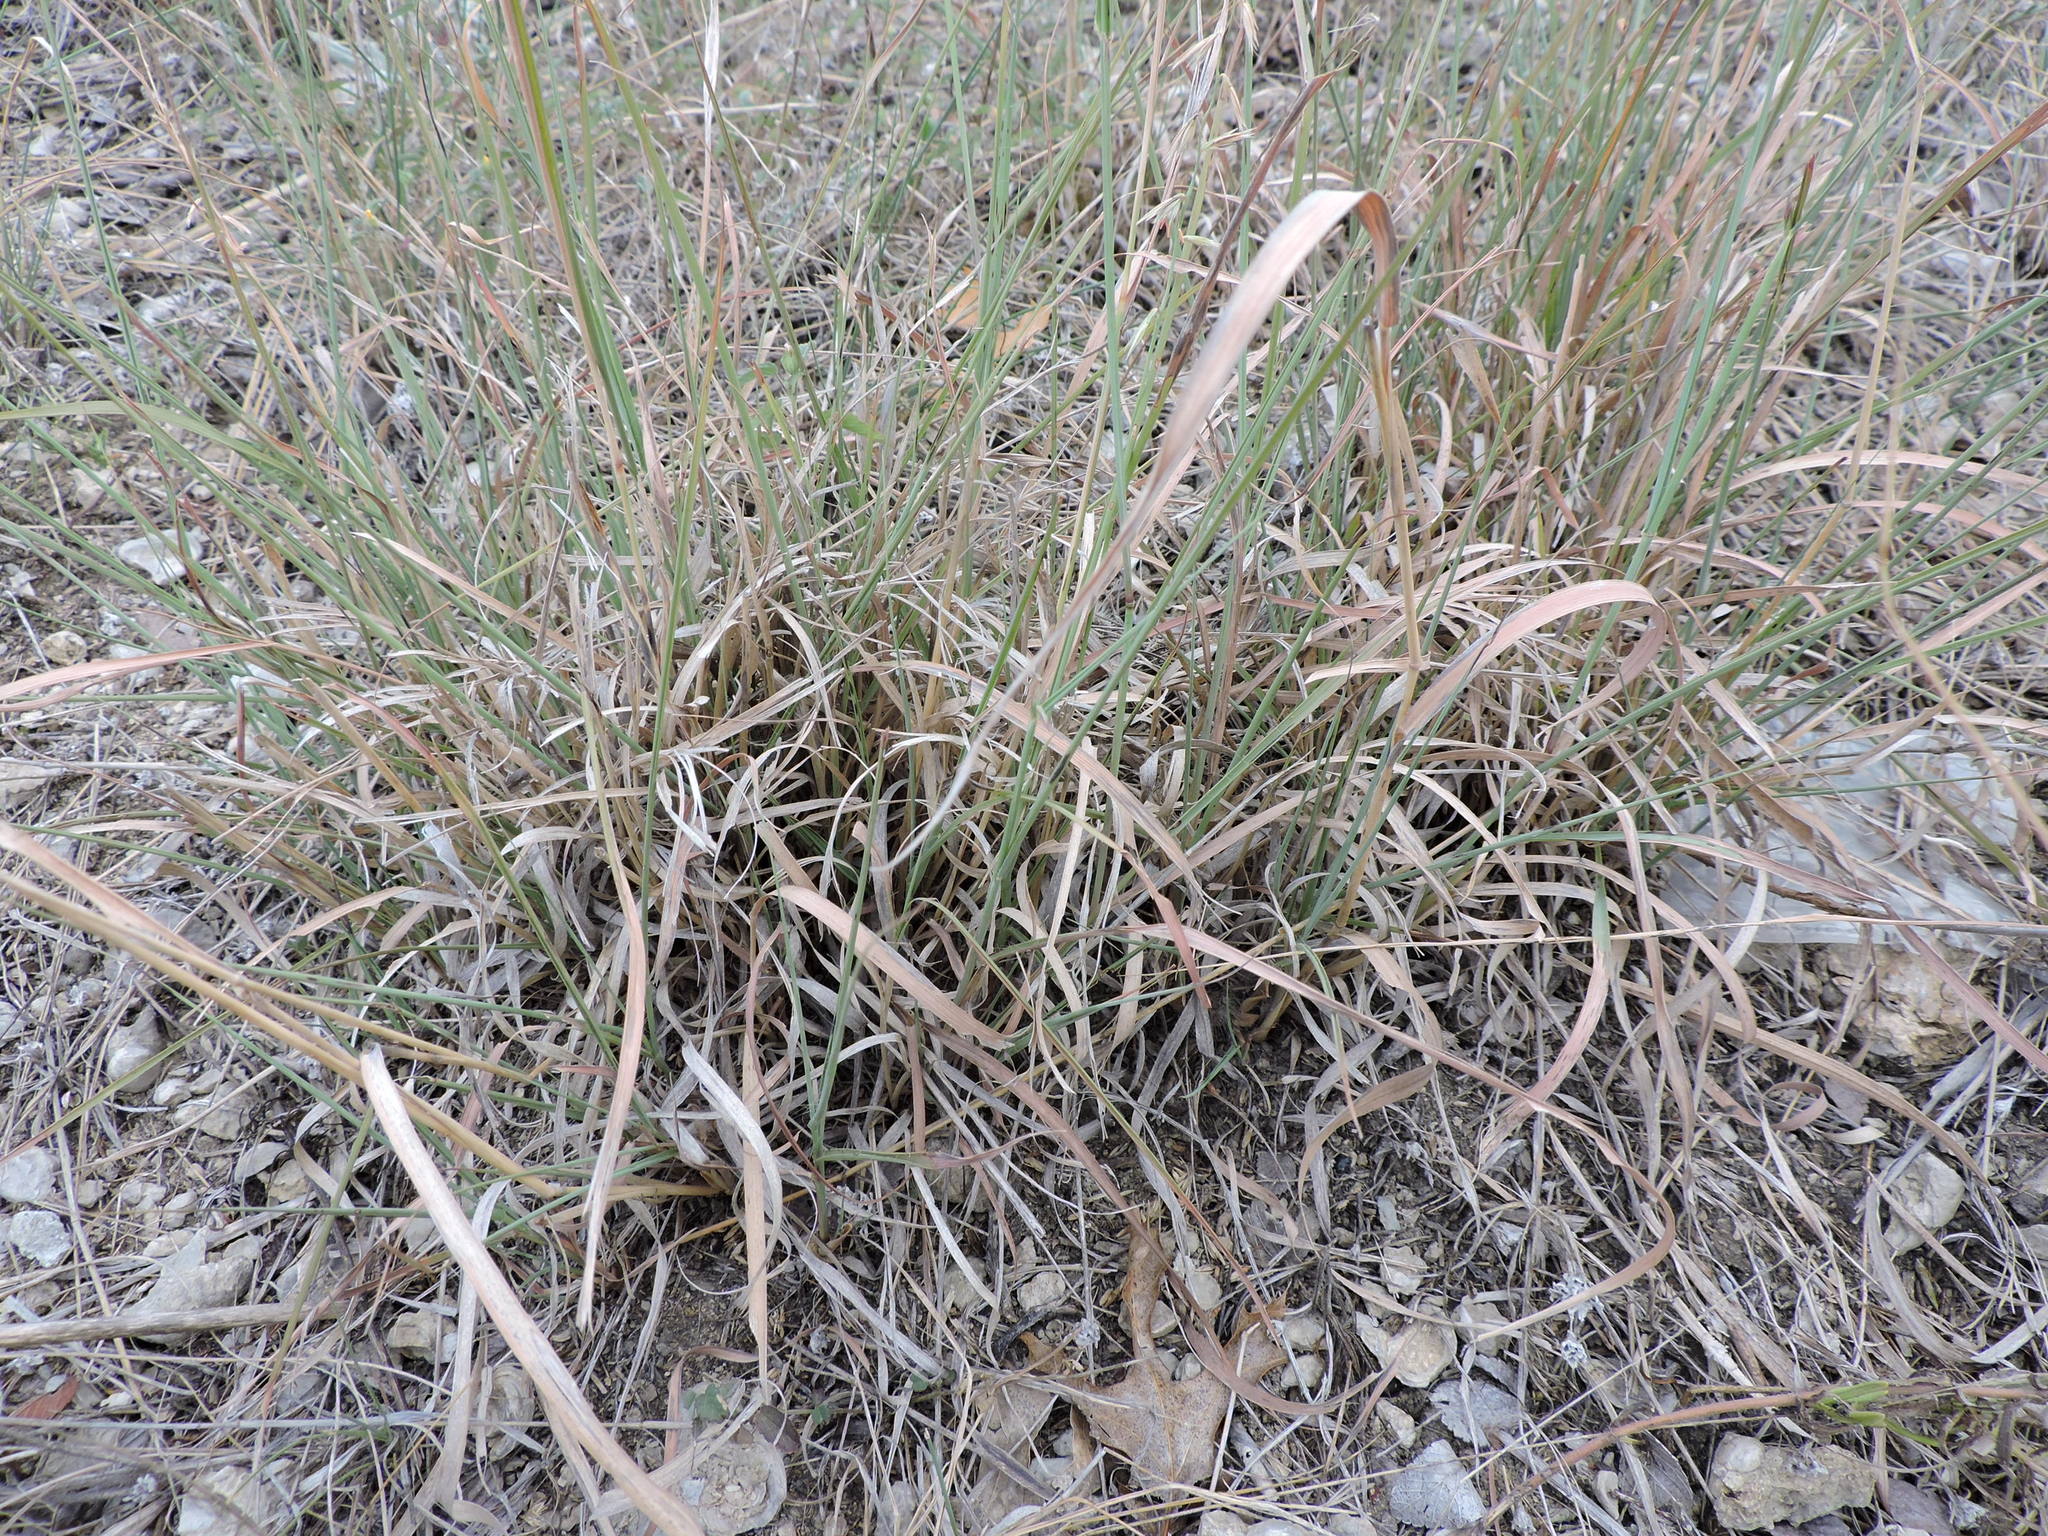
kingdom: Plantae
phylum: Tracheophyta
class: Liliopsida
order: Poales
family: Poaceae
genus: Bouteloua
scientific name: Bouteloua curtipendula
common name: Side-oats grama
